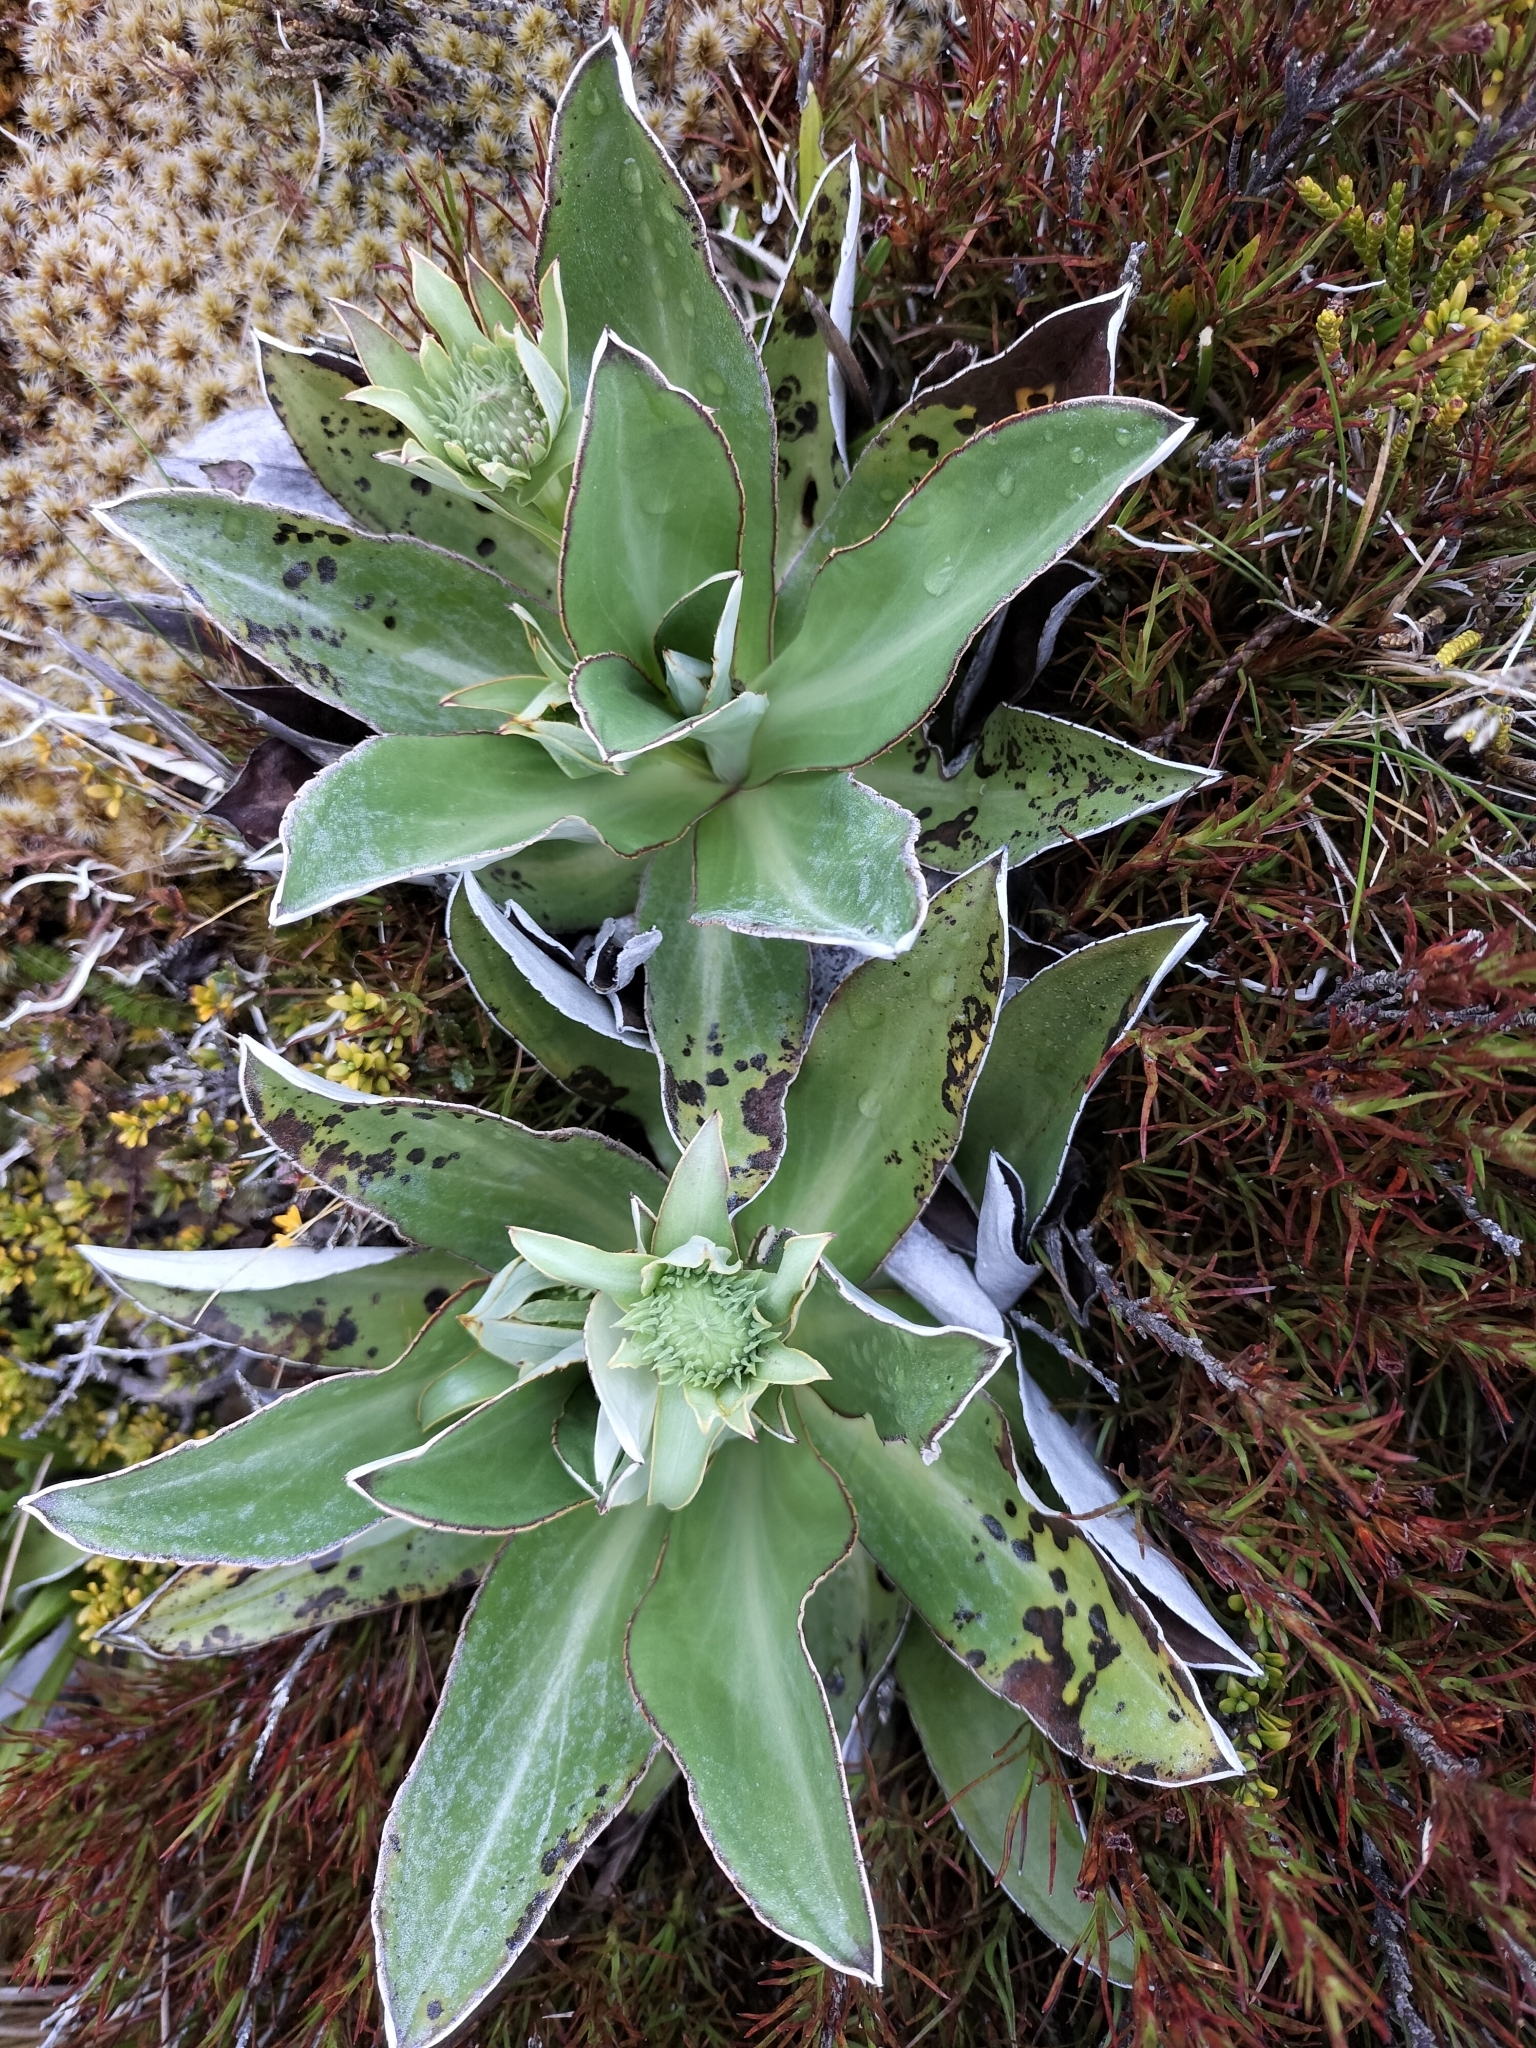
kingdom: Plantae
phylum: Tracheophyta
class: Magnoliopsida
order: Asterales
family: Asteraceae
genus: Celmisia
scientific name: Celmisia dallii
